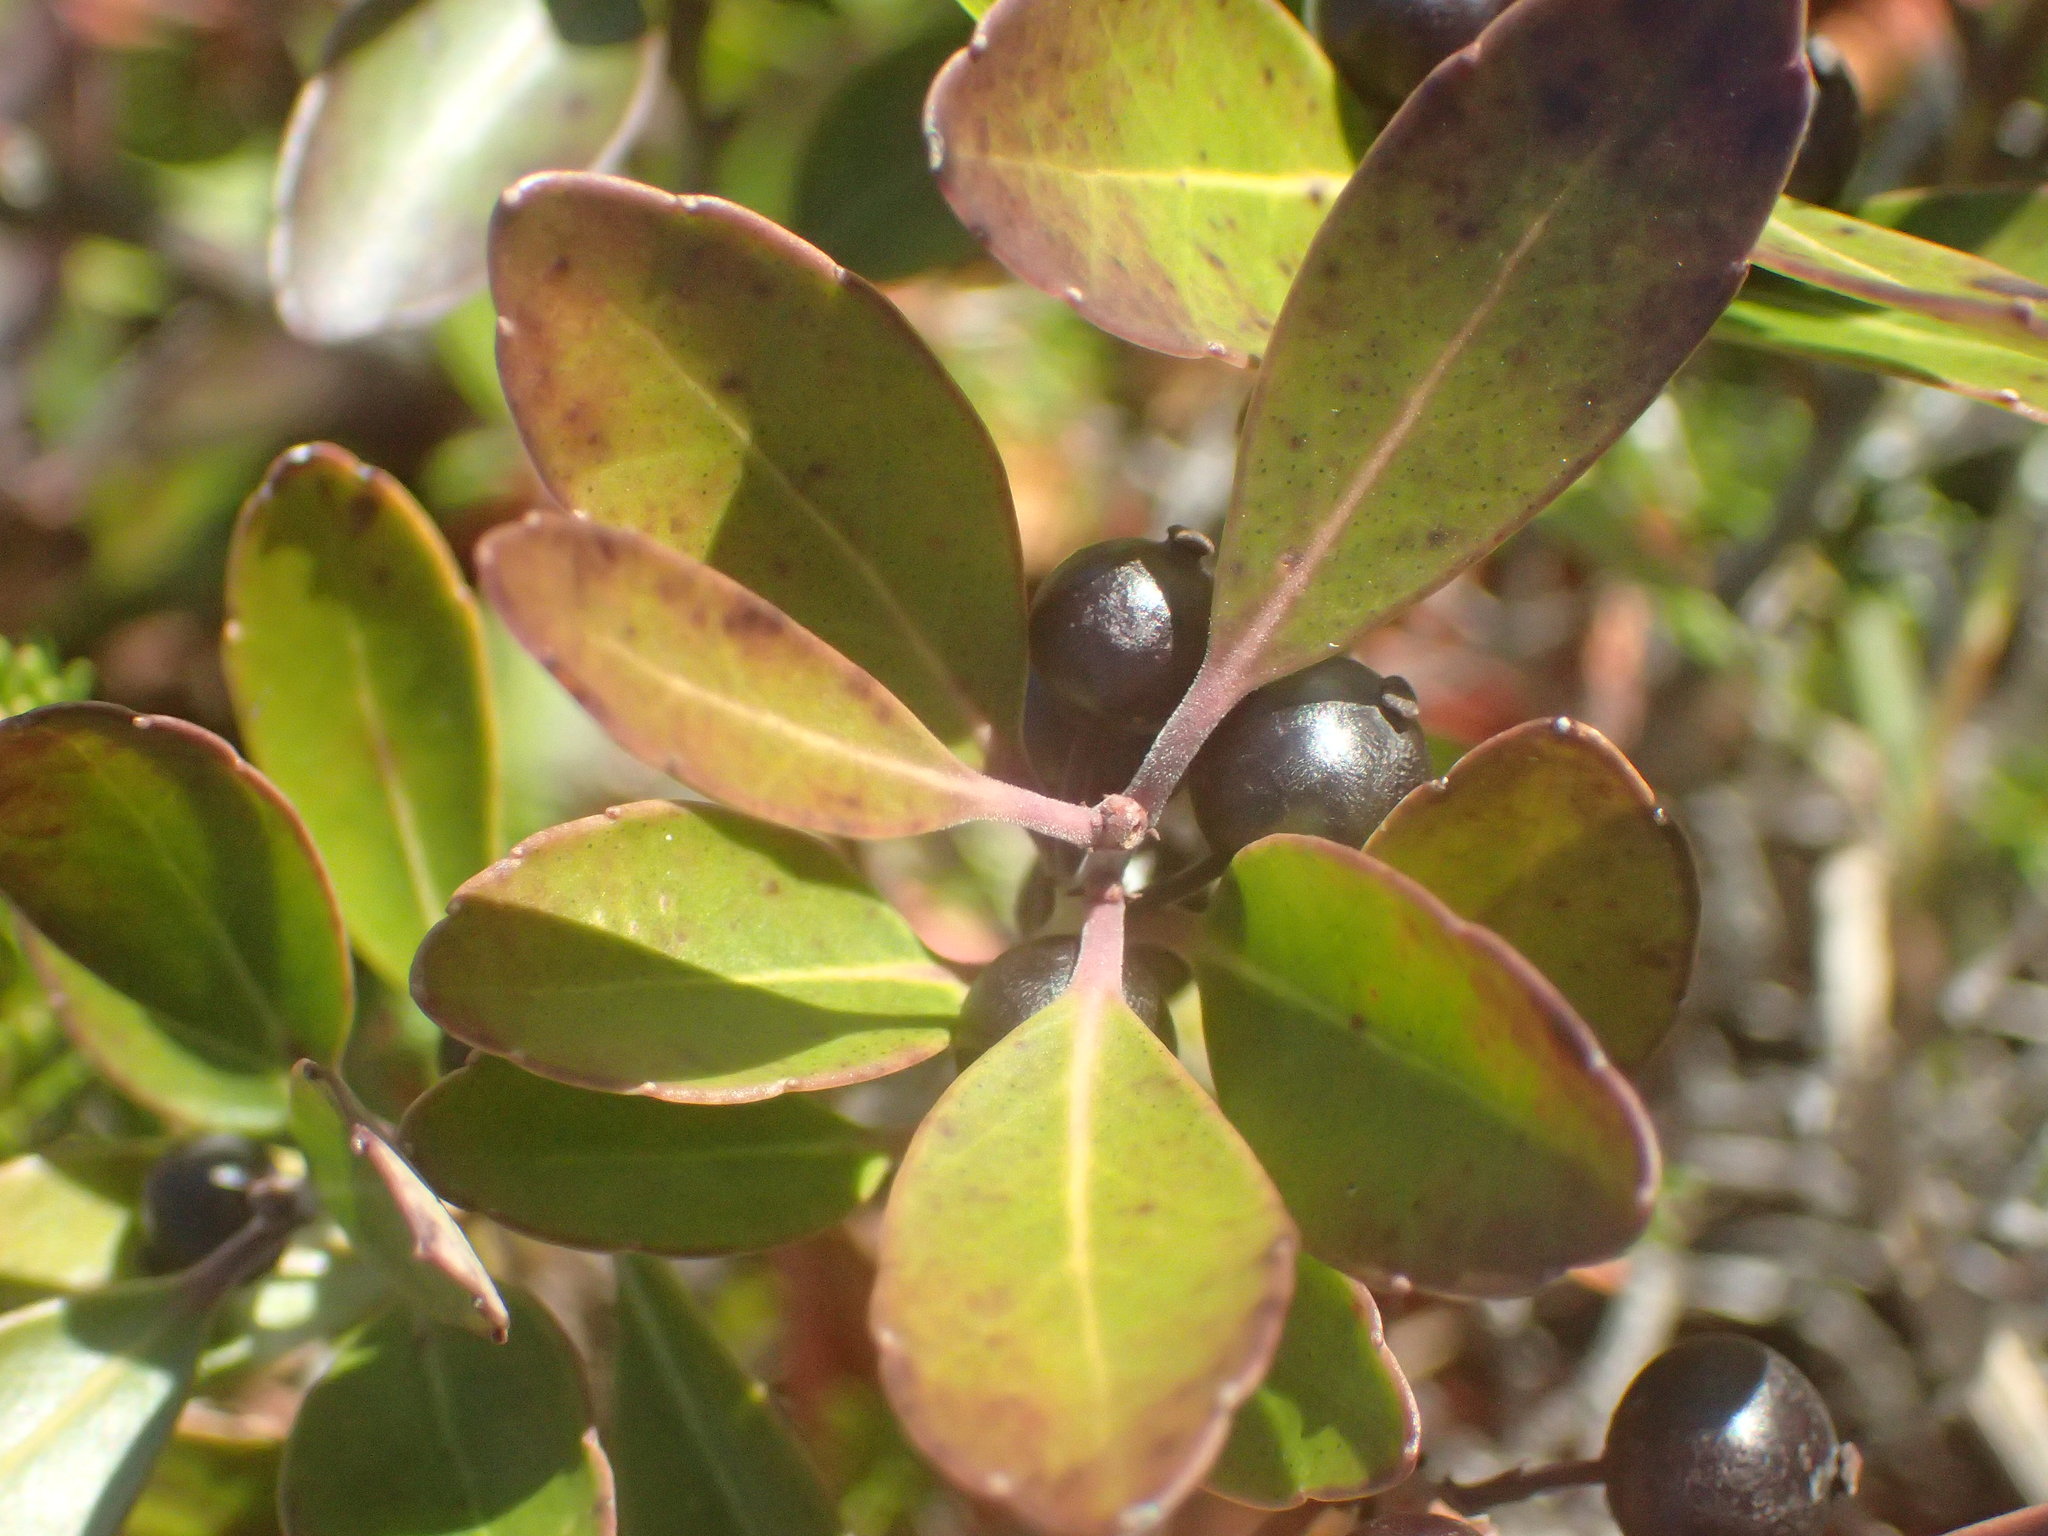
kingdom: Plantae
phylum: Tracheophyta
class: Magnoliopsida
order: Rosales
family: Rosaceae
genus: Aronia
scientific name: Aronia melanocarpa
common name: Black chokeberry
